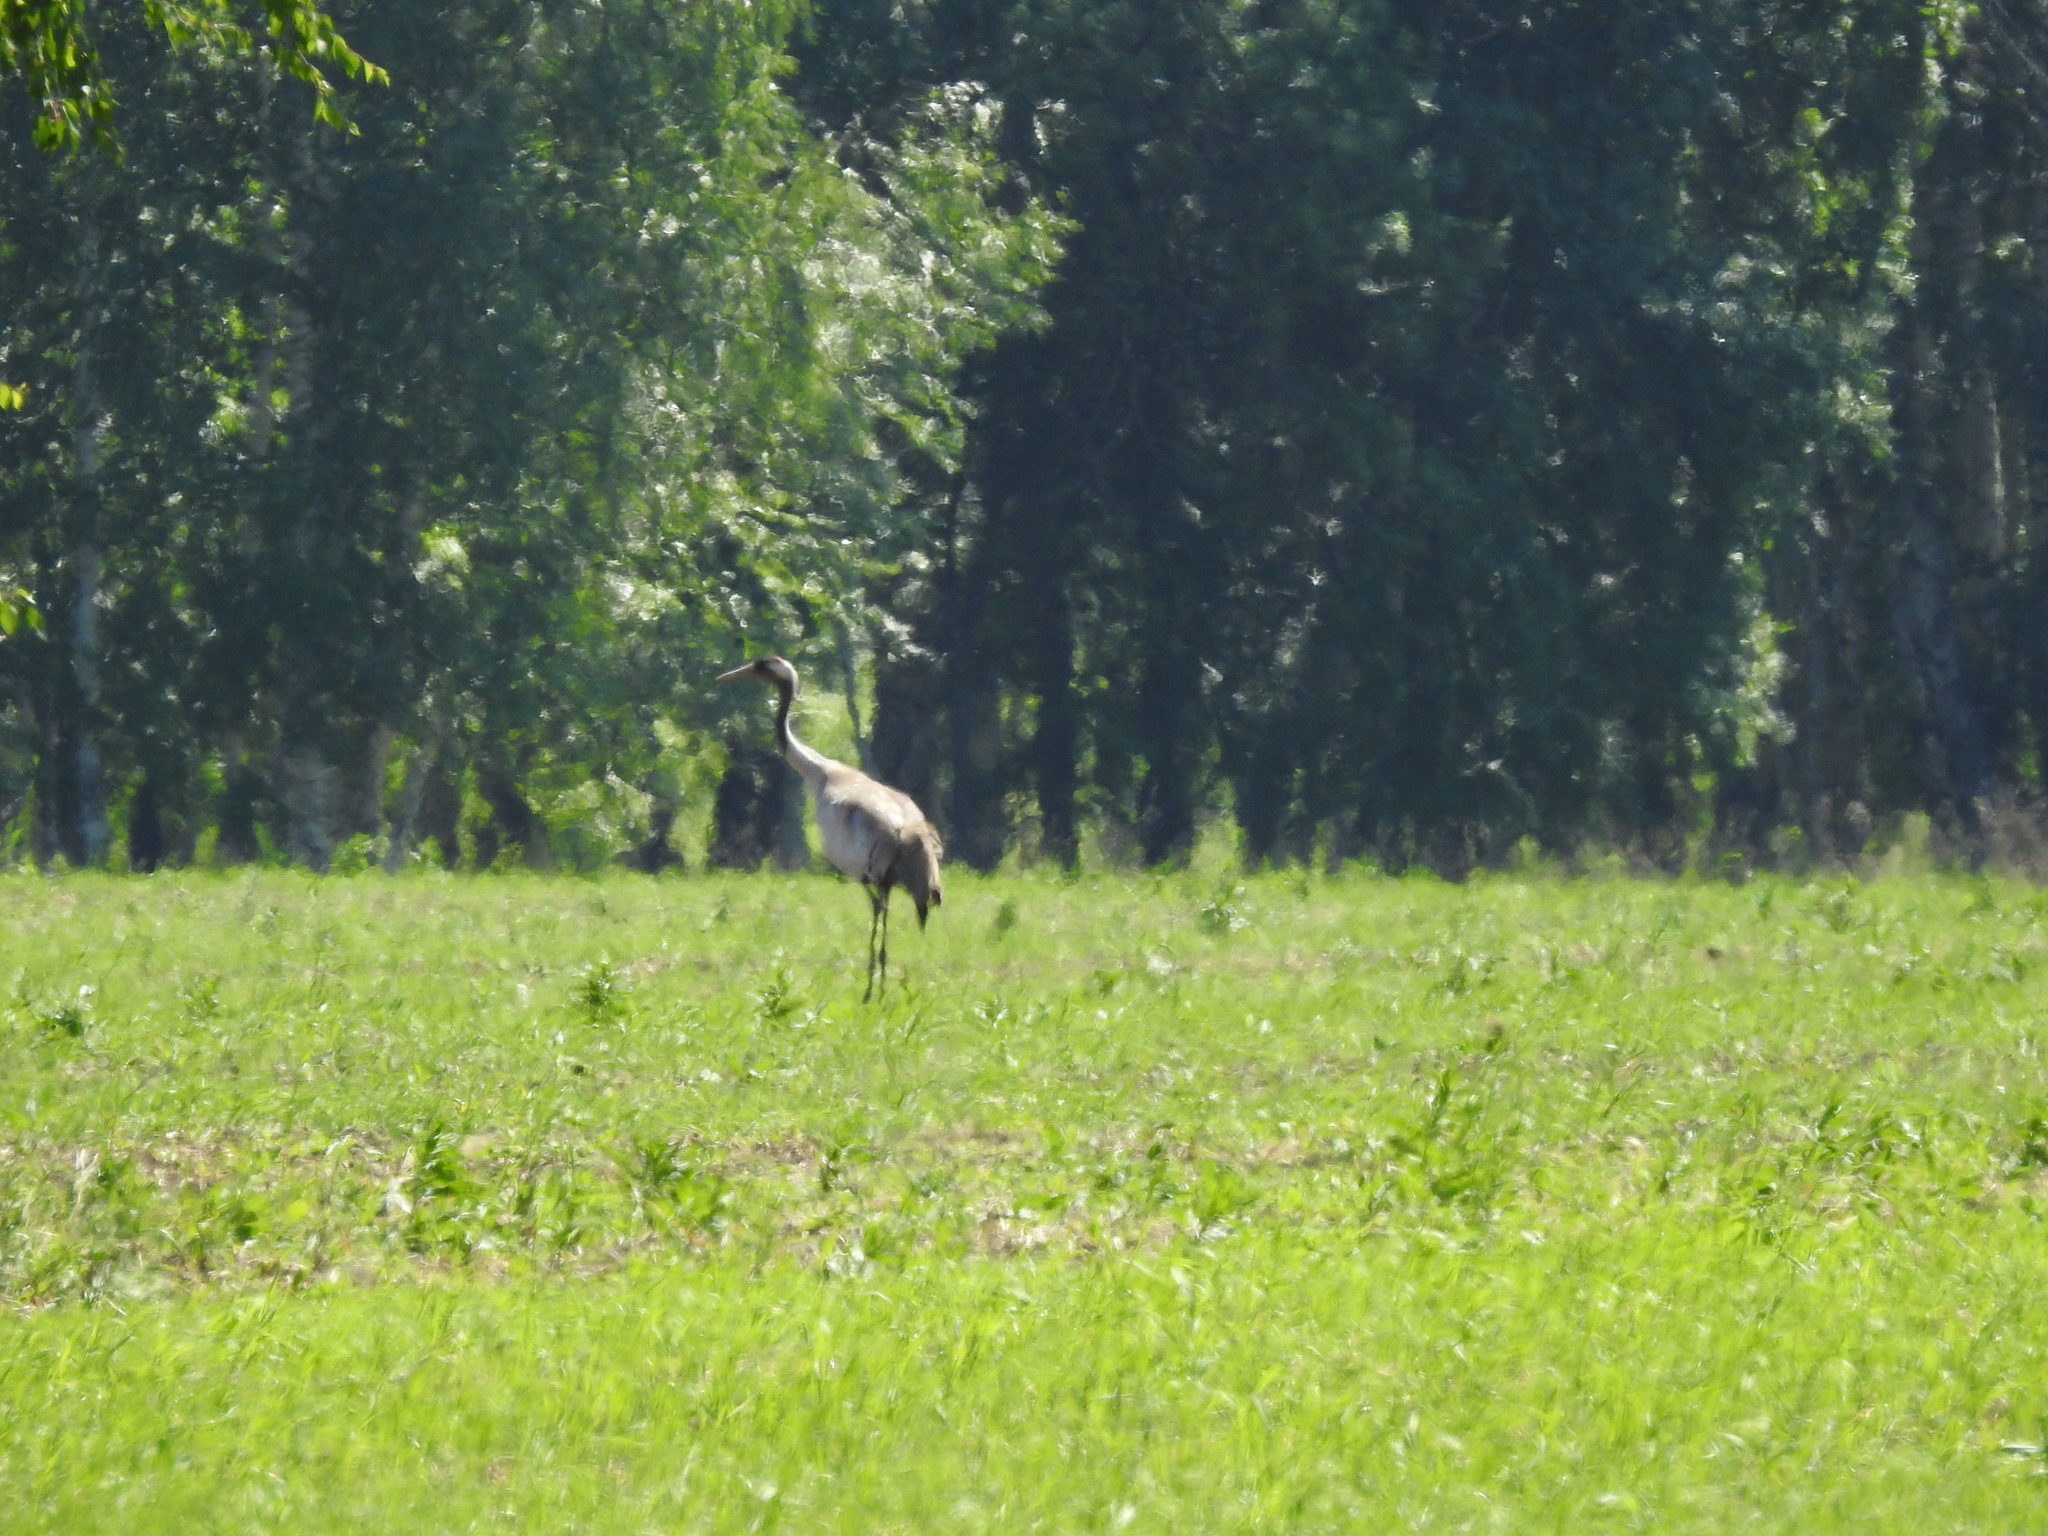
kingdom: Animalia
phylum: Chordata
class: Aves
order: Gruiformes
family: Gruidae
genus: Grus
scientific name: Grus grus
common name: Common crane
